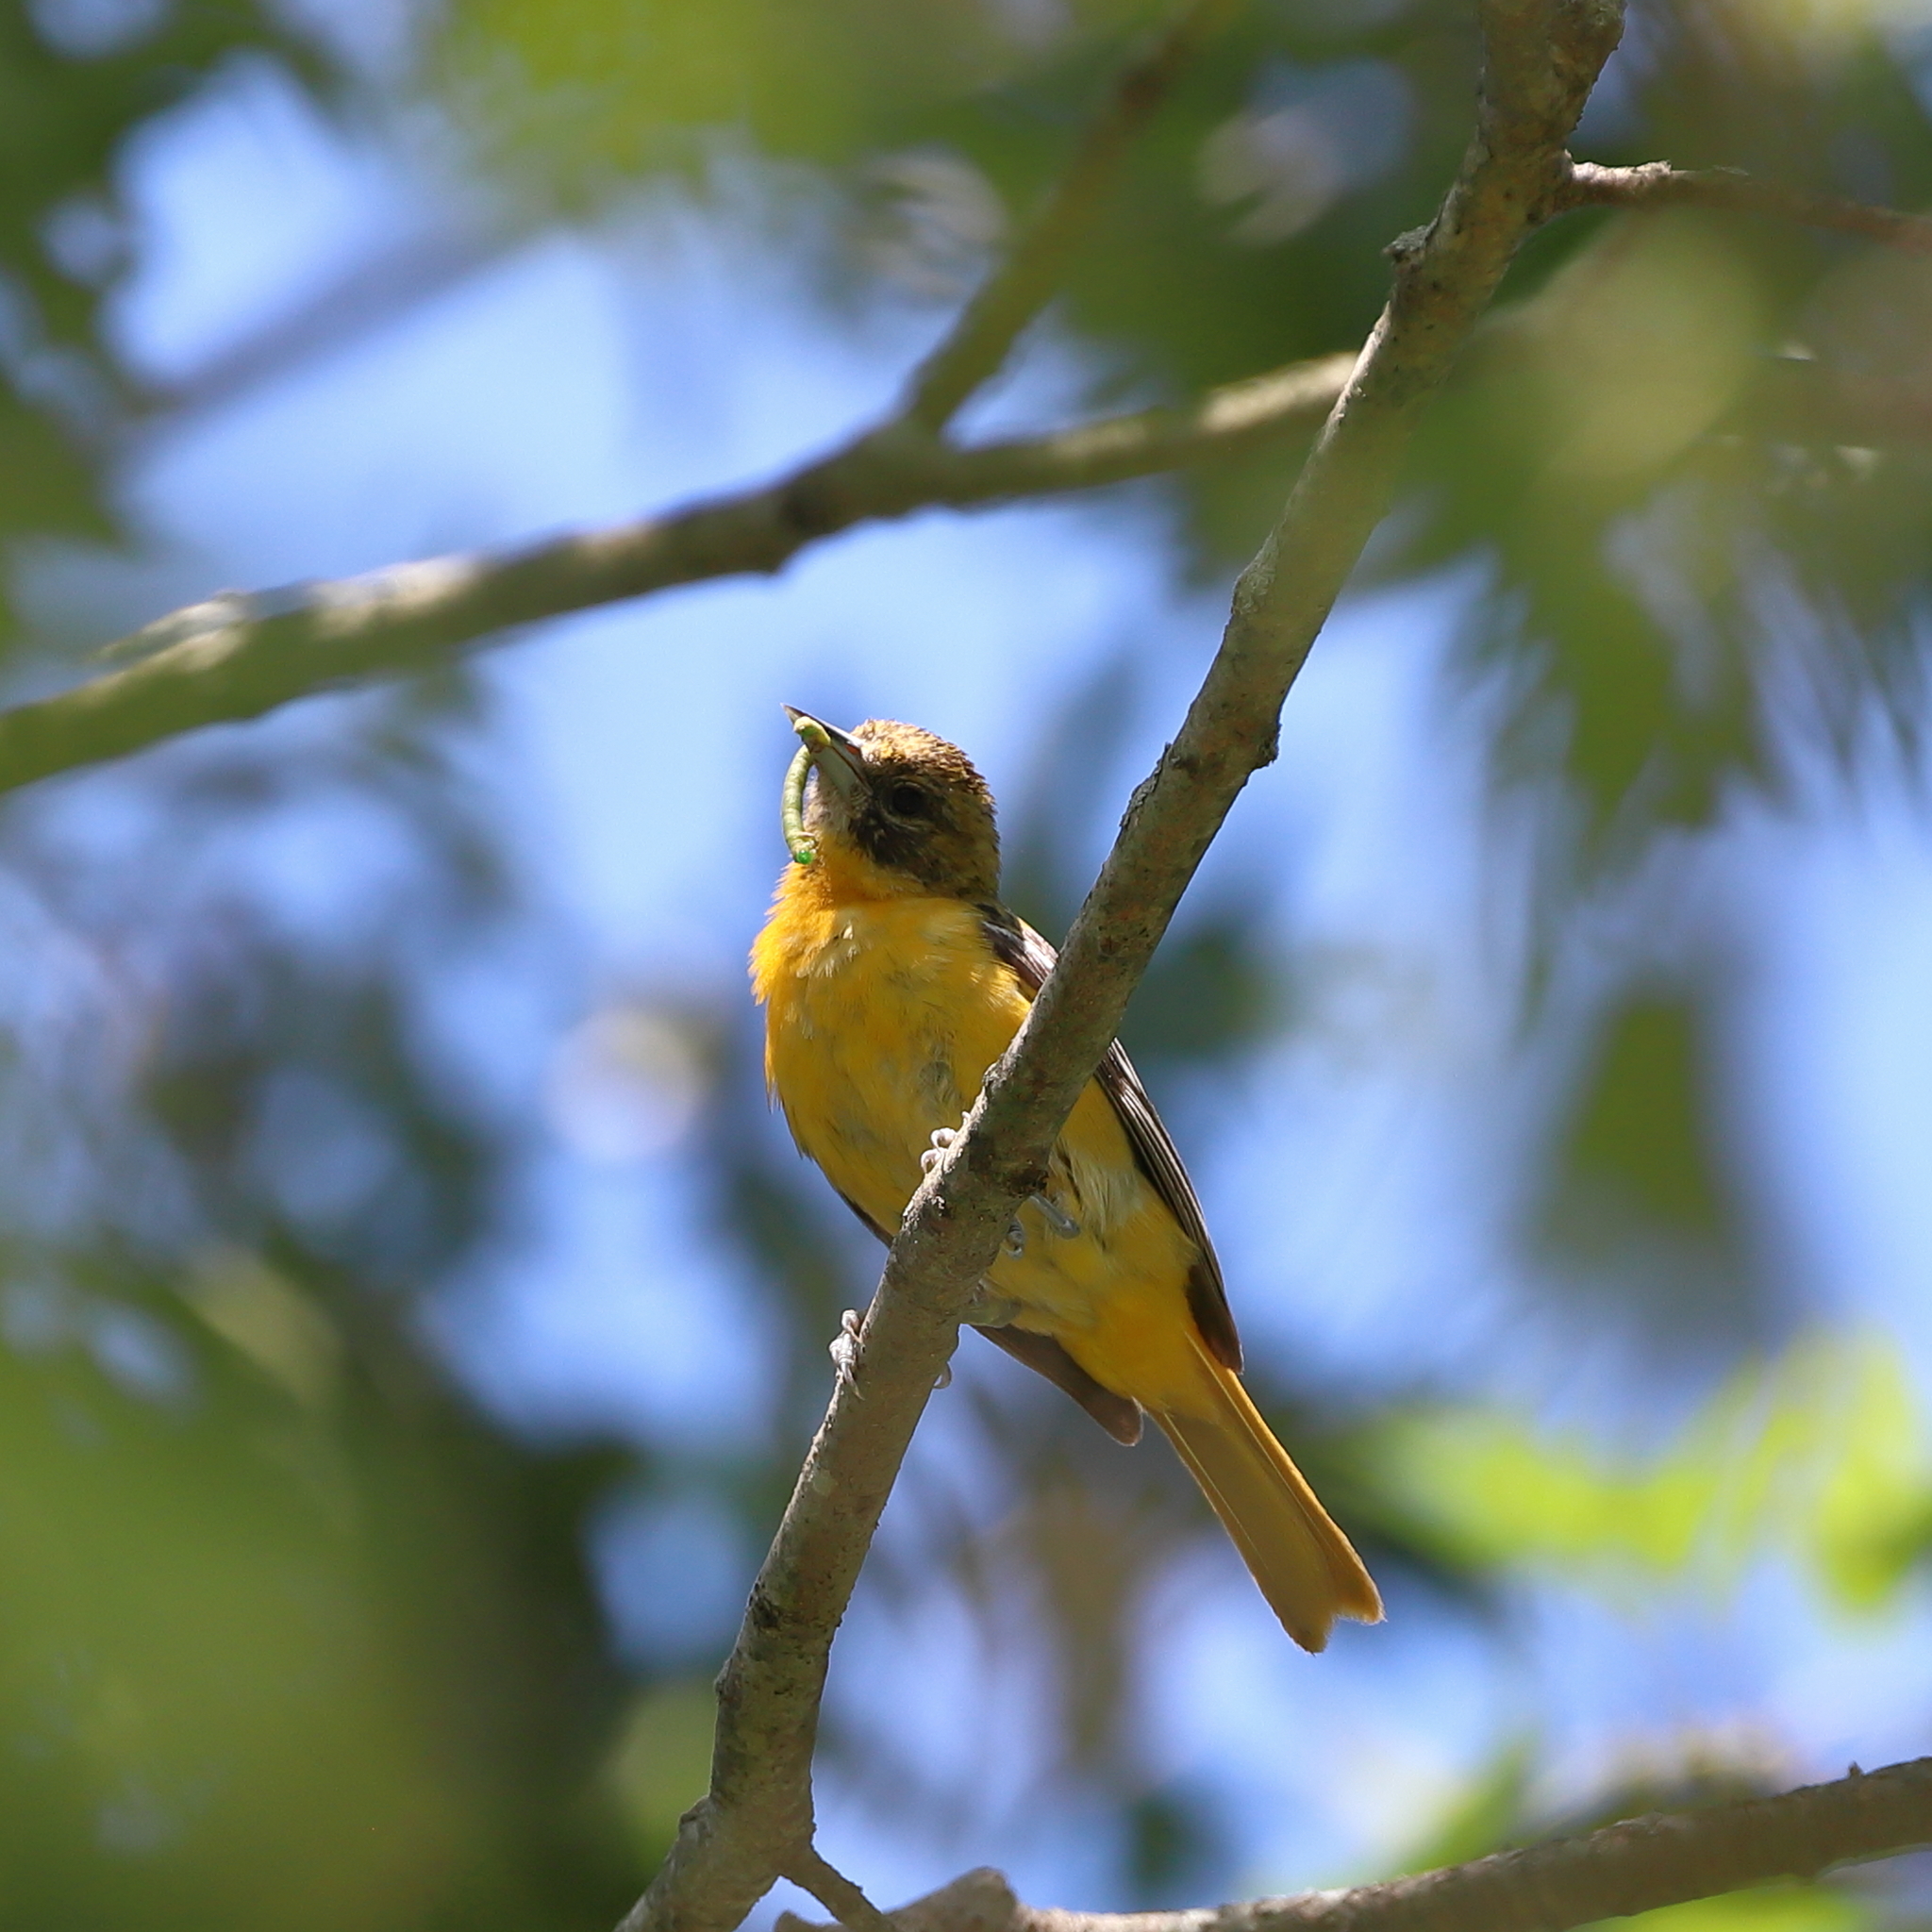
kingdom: Animalia
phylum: Chordata
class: Aves
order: Passeriformes
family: Icteridae
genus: Icterus
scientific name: Icterus galbula
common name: Baltimore oriole
